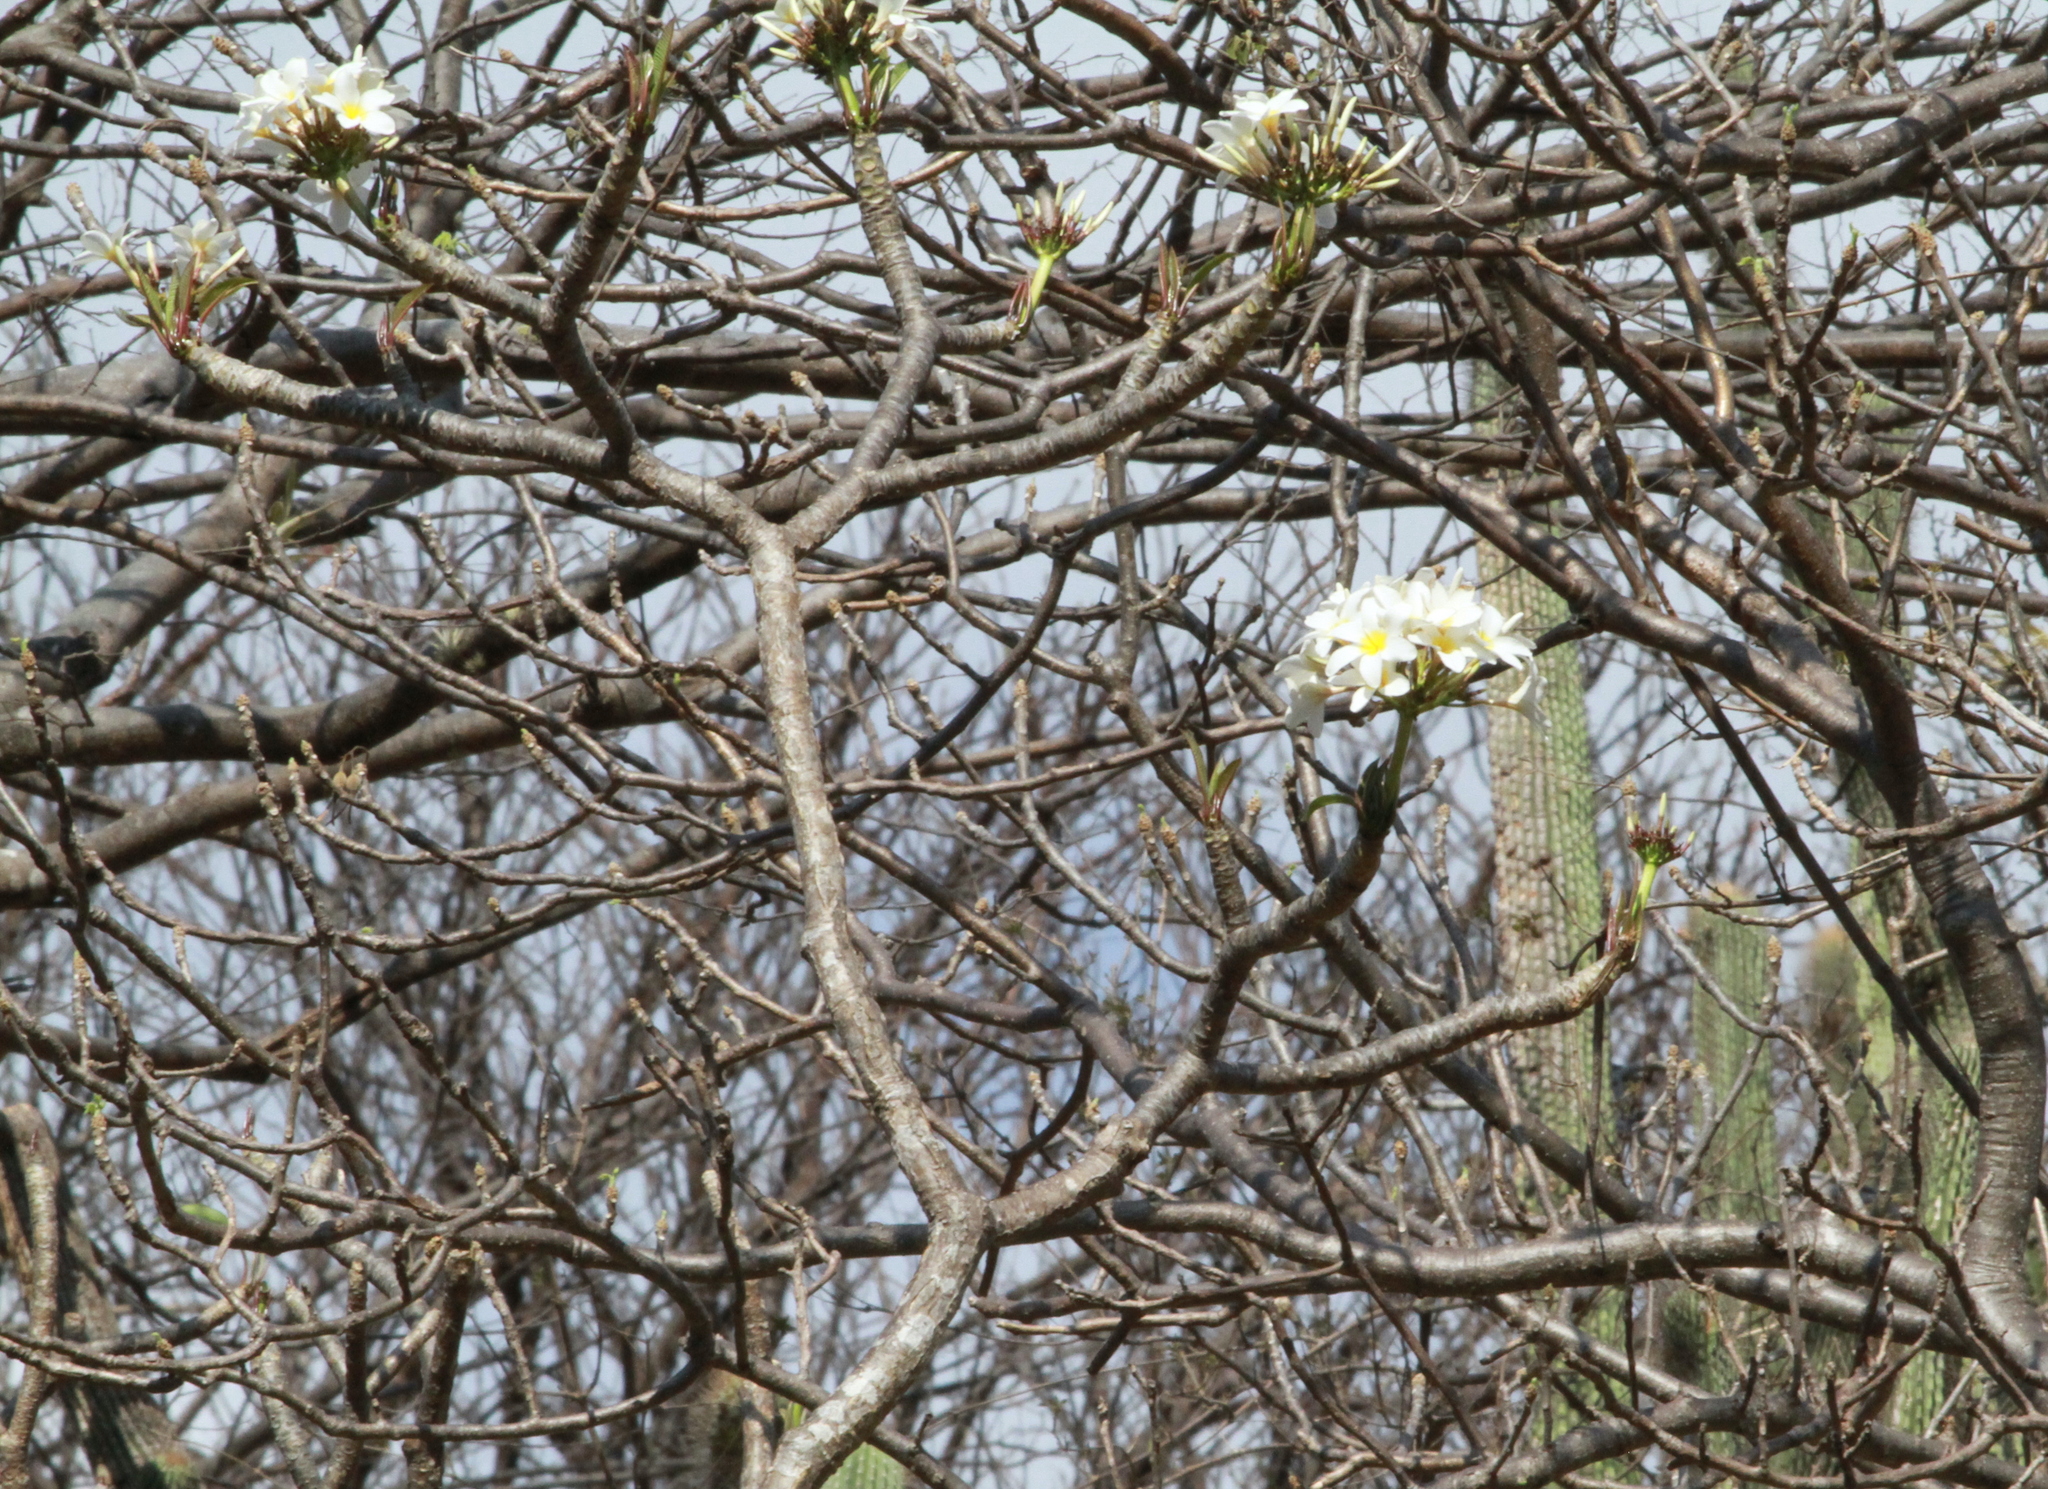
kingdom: Plantae
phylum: Tracheophyta
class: Magnoliopsida
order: Gentianales
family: Apocynaceae
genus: Plumeria
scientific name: Plumeria rubra
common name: Pagoda-tree
